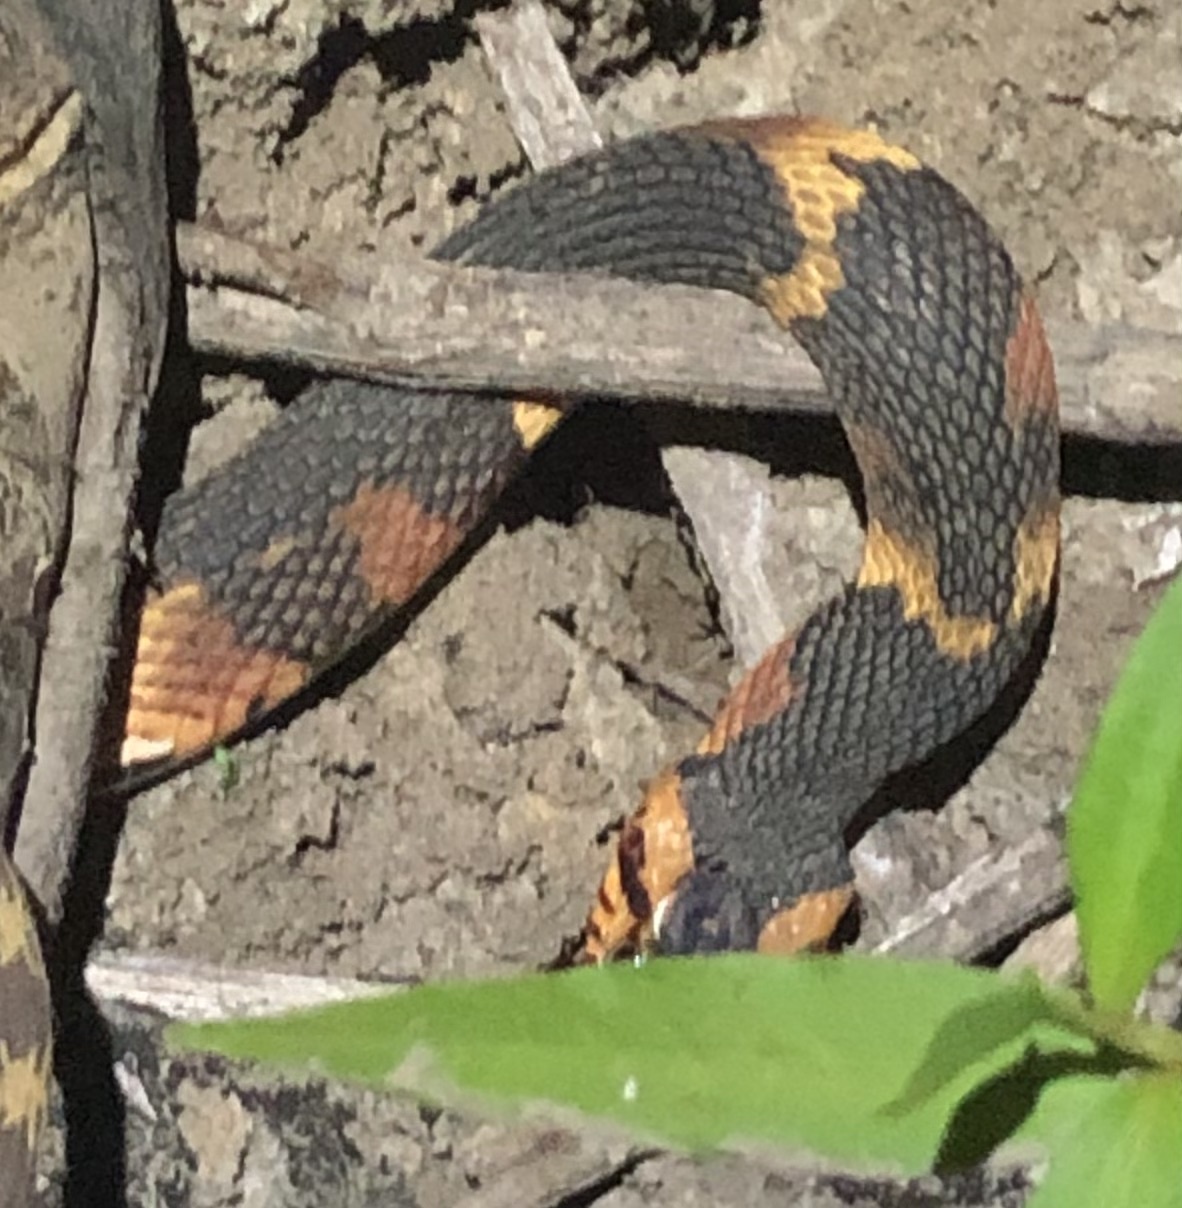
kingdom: Animalia
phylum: Chordata
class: Squamata
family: Colubridae
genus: Nerodia
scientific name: Nerodia fasciata
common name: Southern water snake
